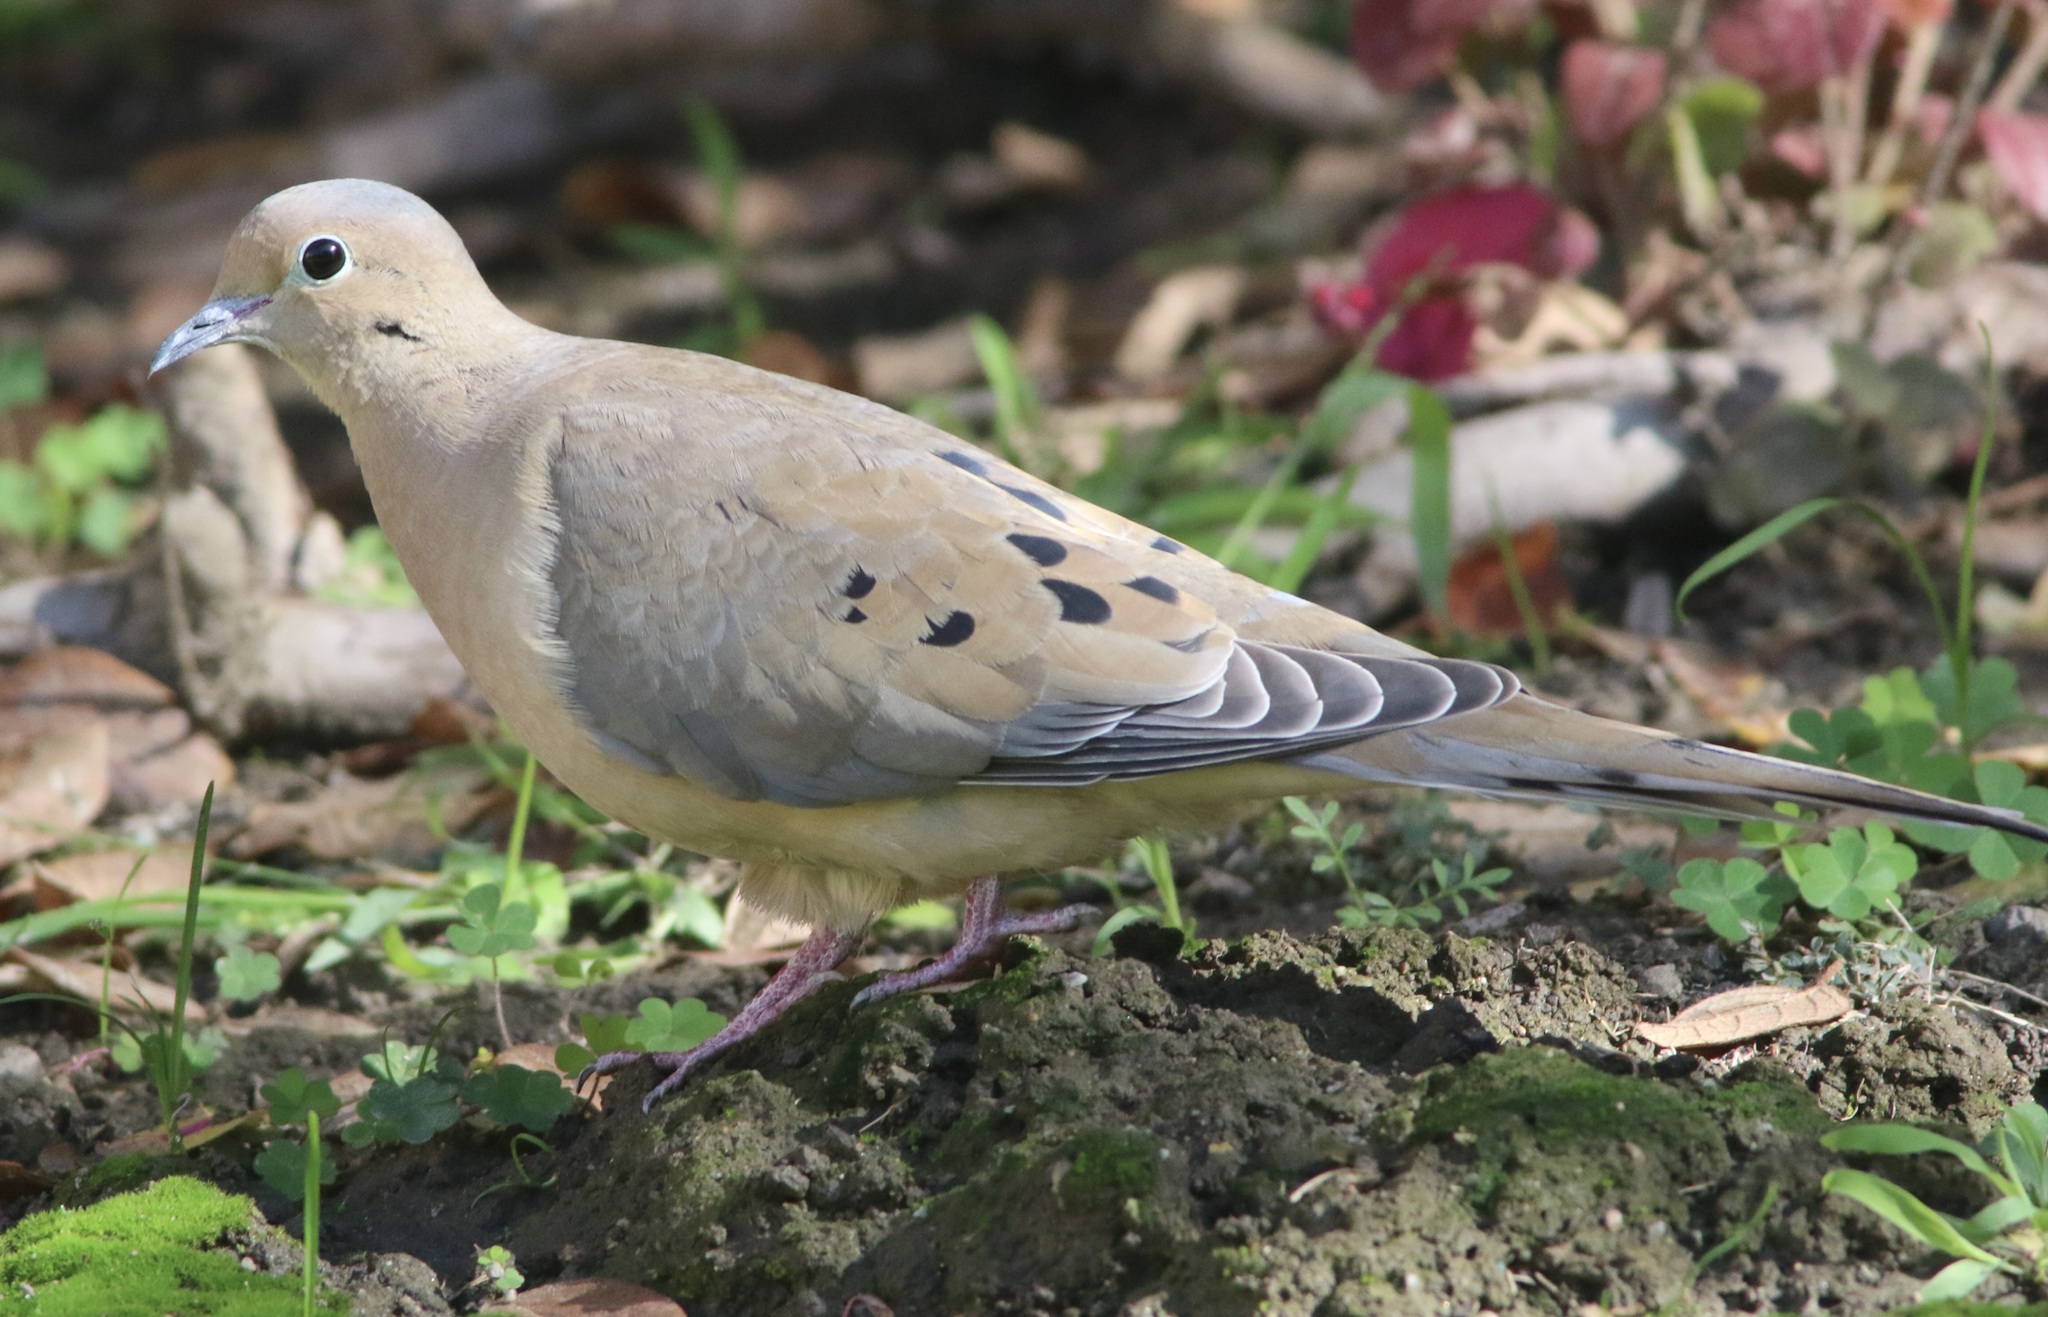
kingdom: Animalia
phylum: Chordata
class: Aves
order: Columbiformes
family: Columbidae
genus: Zenaida
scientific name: Zenaida macroura
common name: Mourning dove
